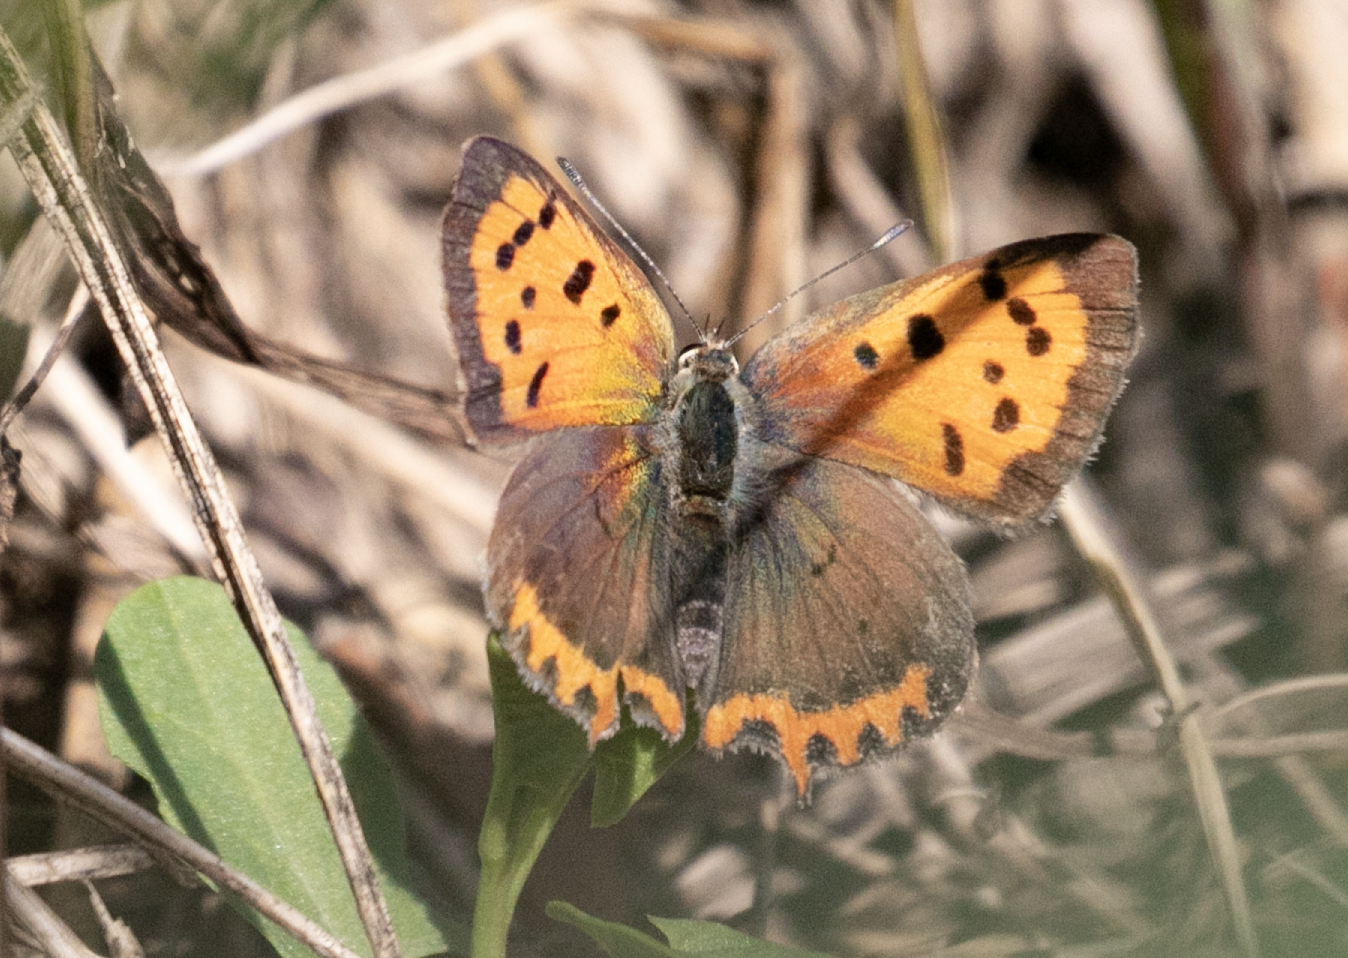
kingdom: Animalia
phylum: Arthropoda
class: Insecta
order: Lepidoptera
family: Lycaenidae
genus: Lycaena
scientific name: Lycaena phlaeas
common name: Small copper
